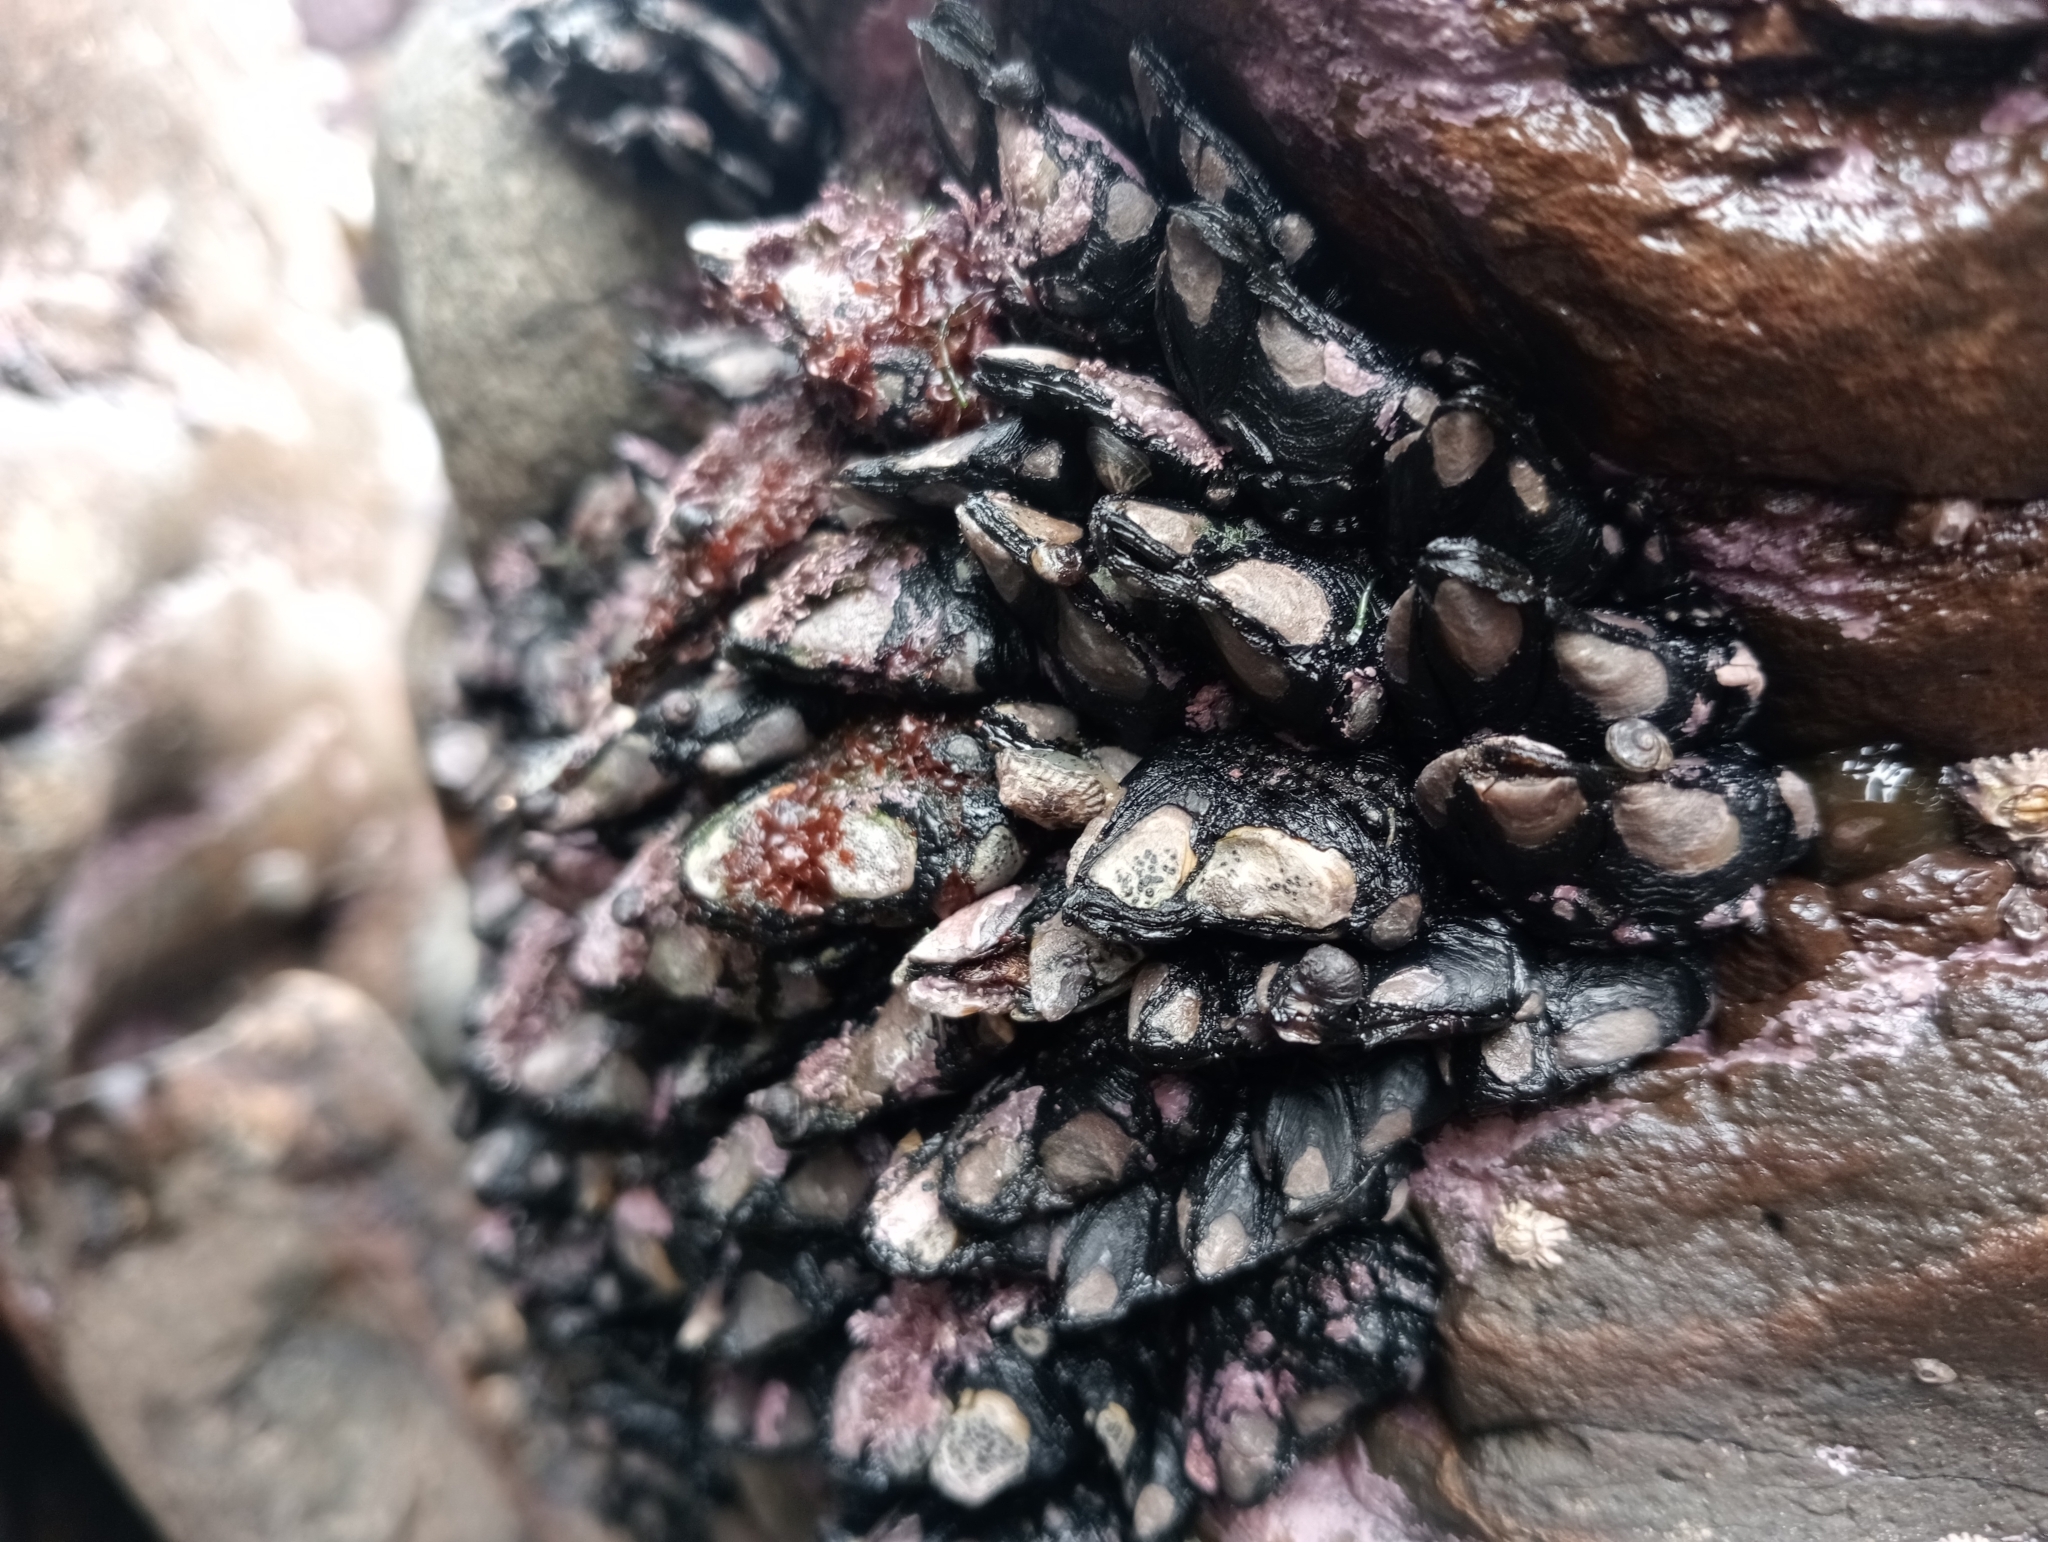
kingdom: Animalia
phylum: Arthropoda
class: Maxillopoda
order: Pedunculata
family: Calanticidae
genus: Calantica
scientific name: Calantica spinosa
